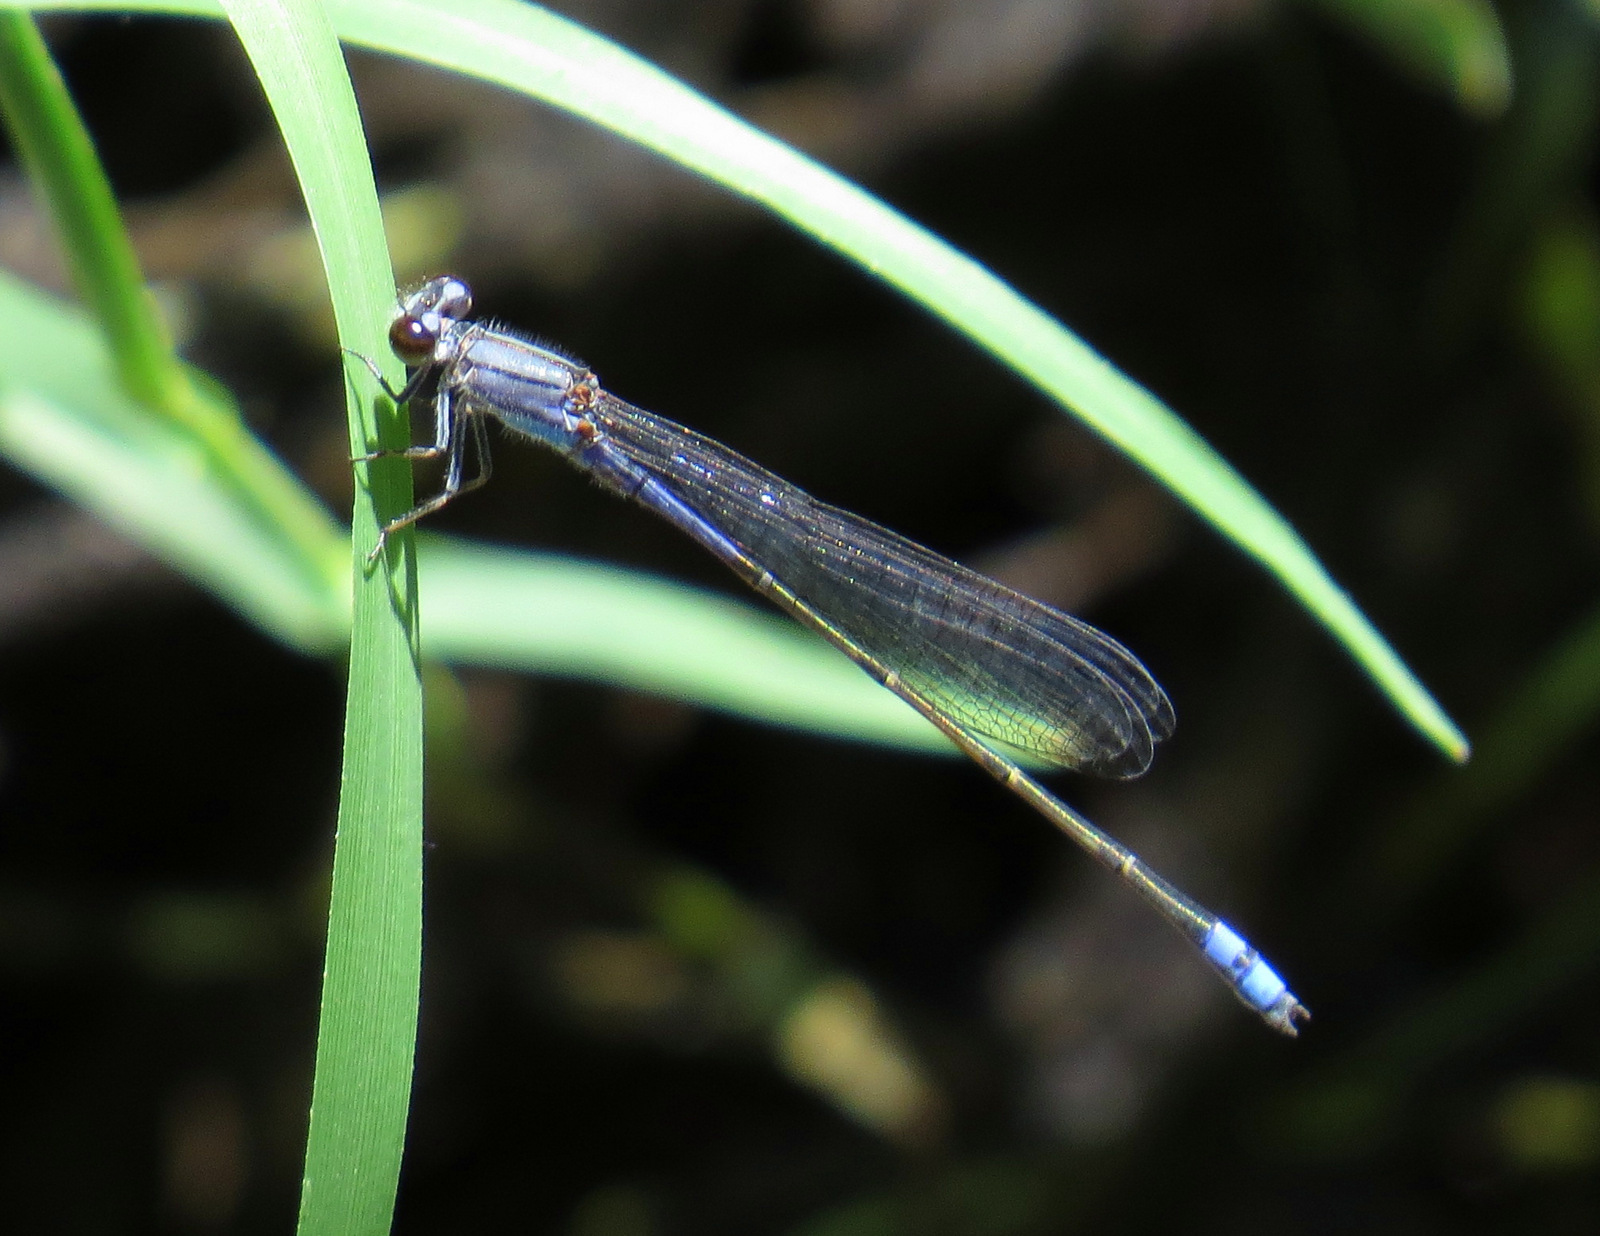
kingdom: Animalia
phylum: Arthropoda
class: Insecta
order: Odonata
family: Coenagrionidae
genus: Enallagma
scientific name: Enallagma novaehispaniae
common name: Neotropical bluet
